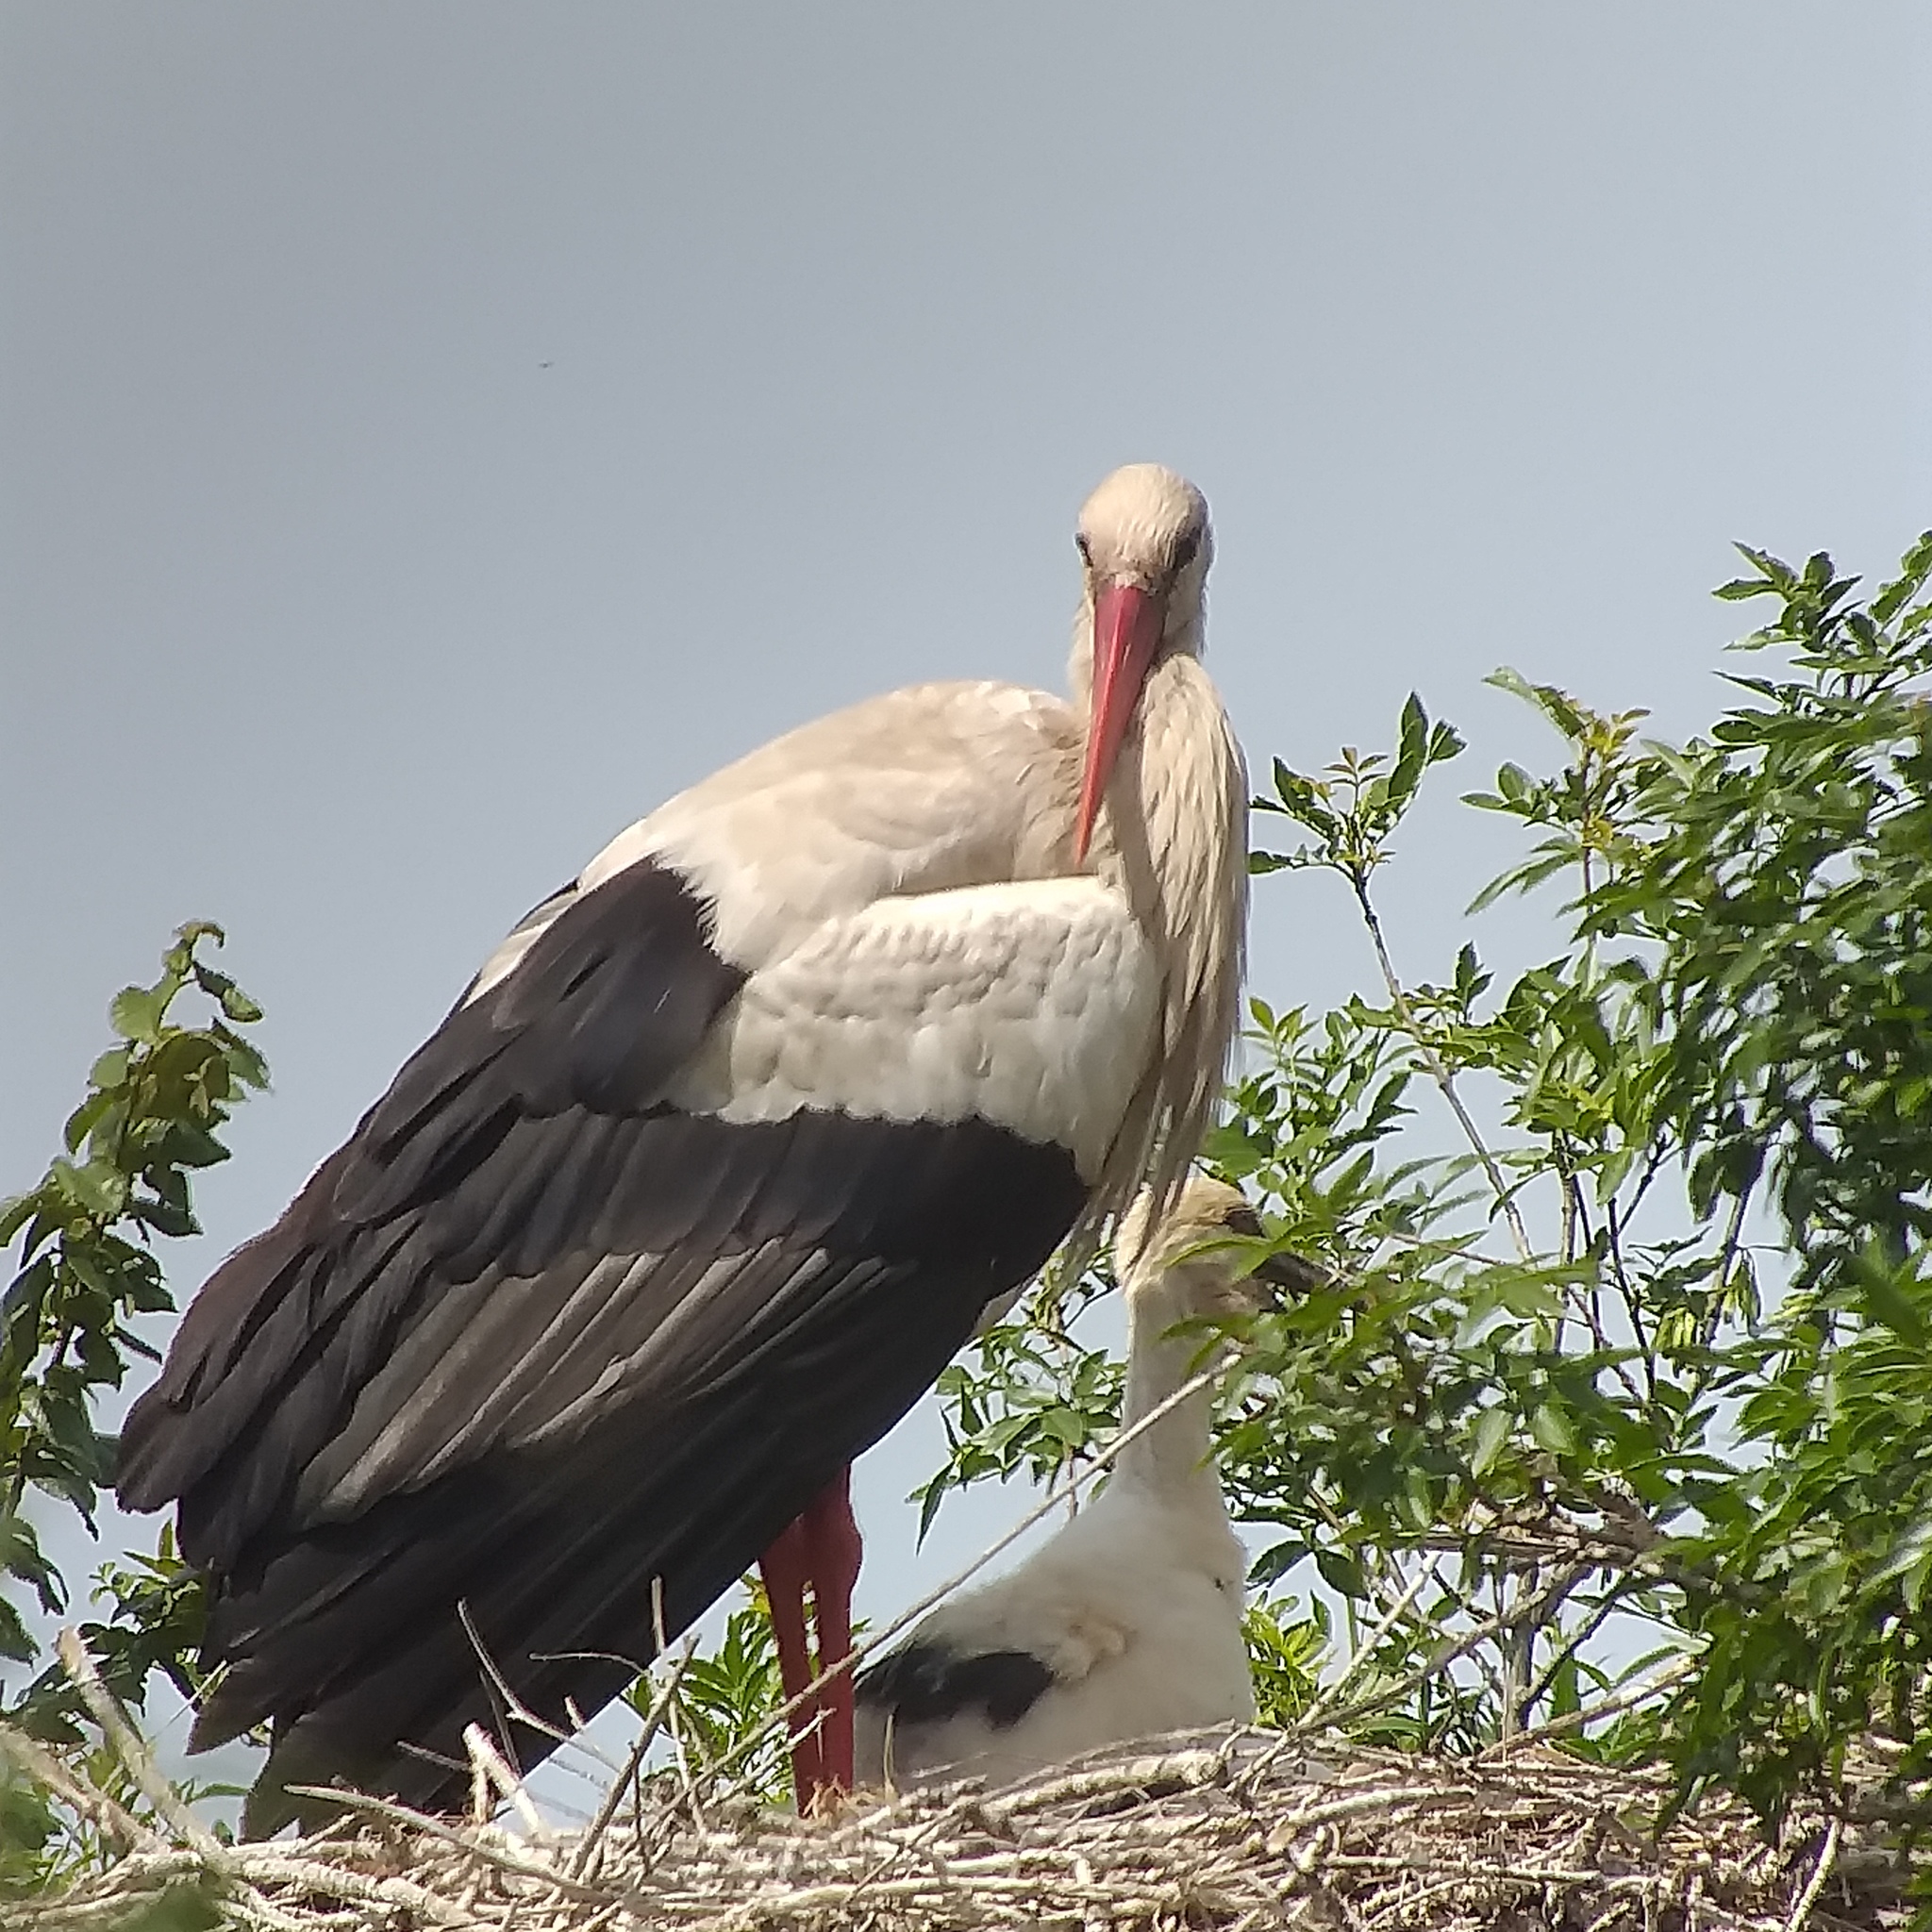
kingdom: Animalia
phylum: Chordata
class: Aves
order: Ciconiiformes
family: Ciconiidae
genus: Ciconia
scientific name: Ciconia ciconia
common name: White stork
